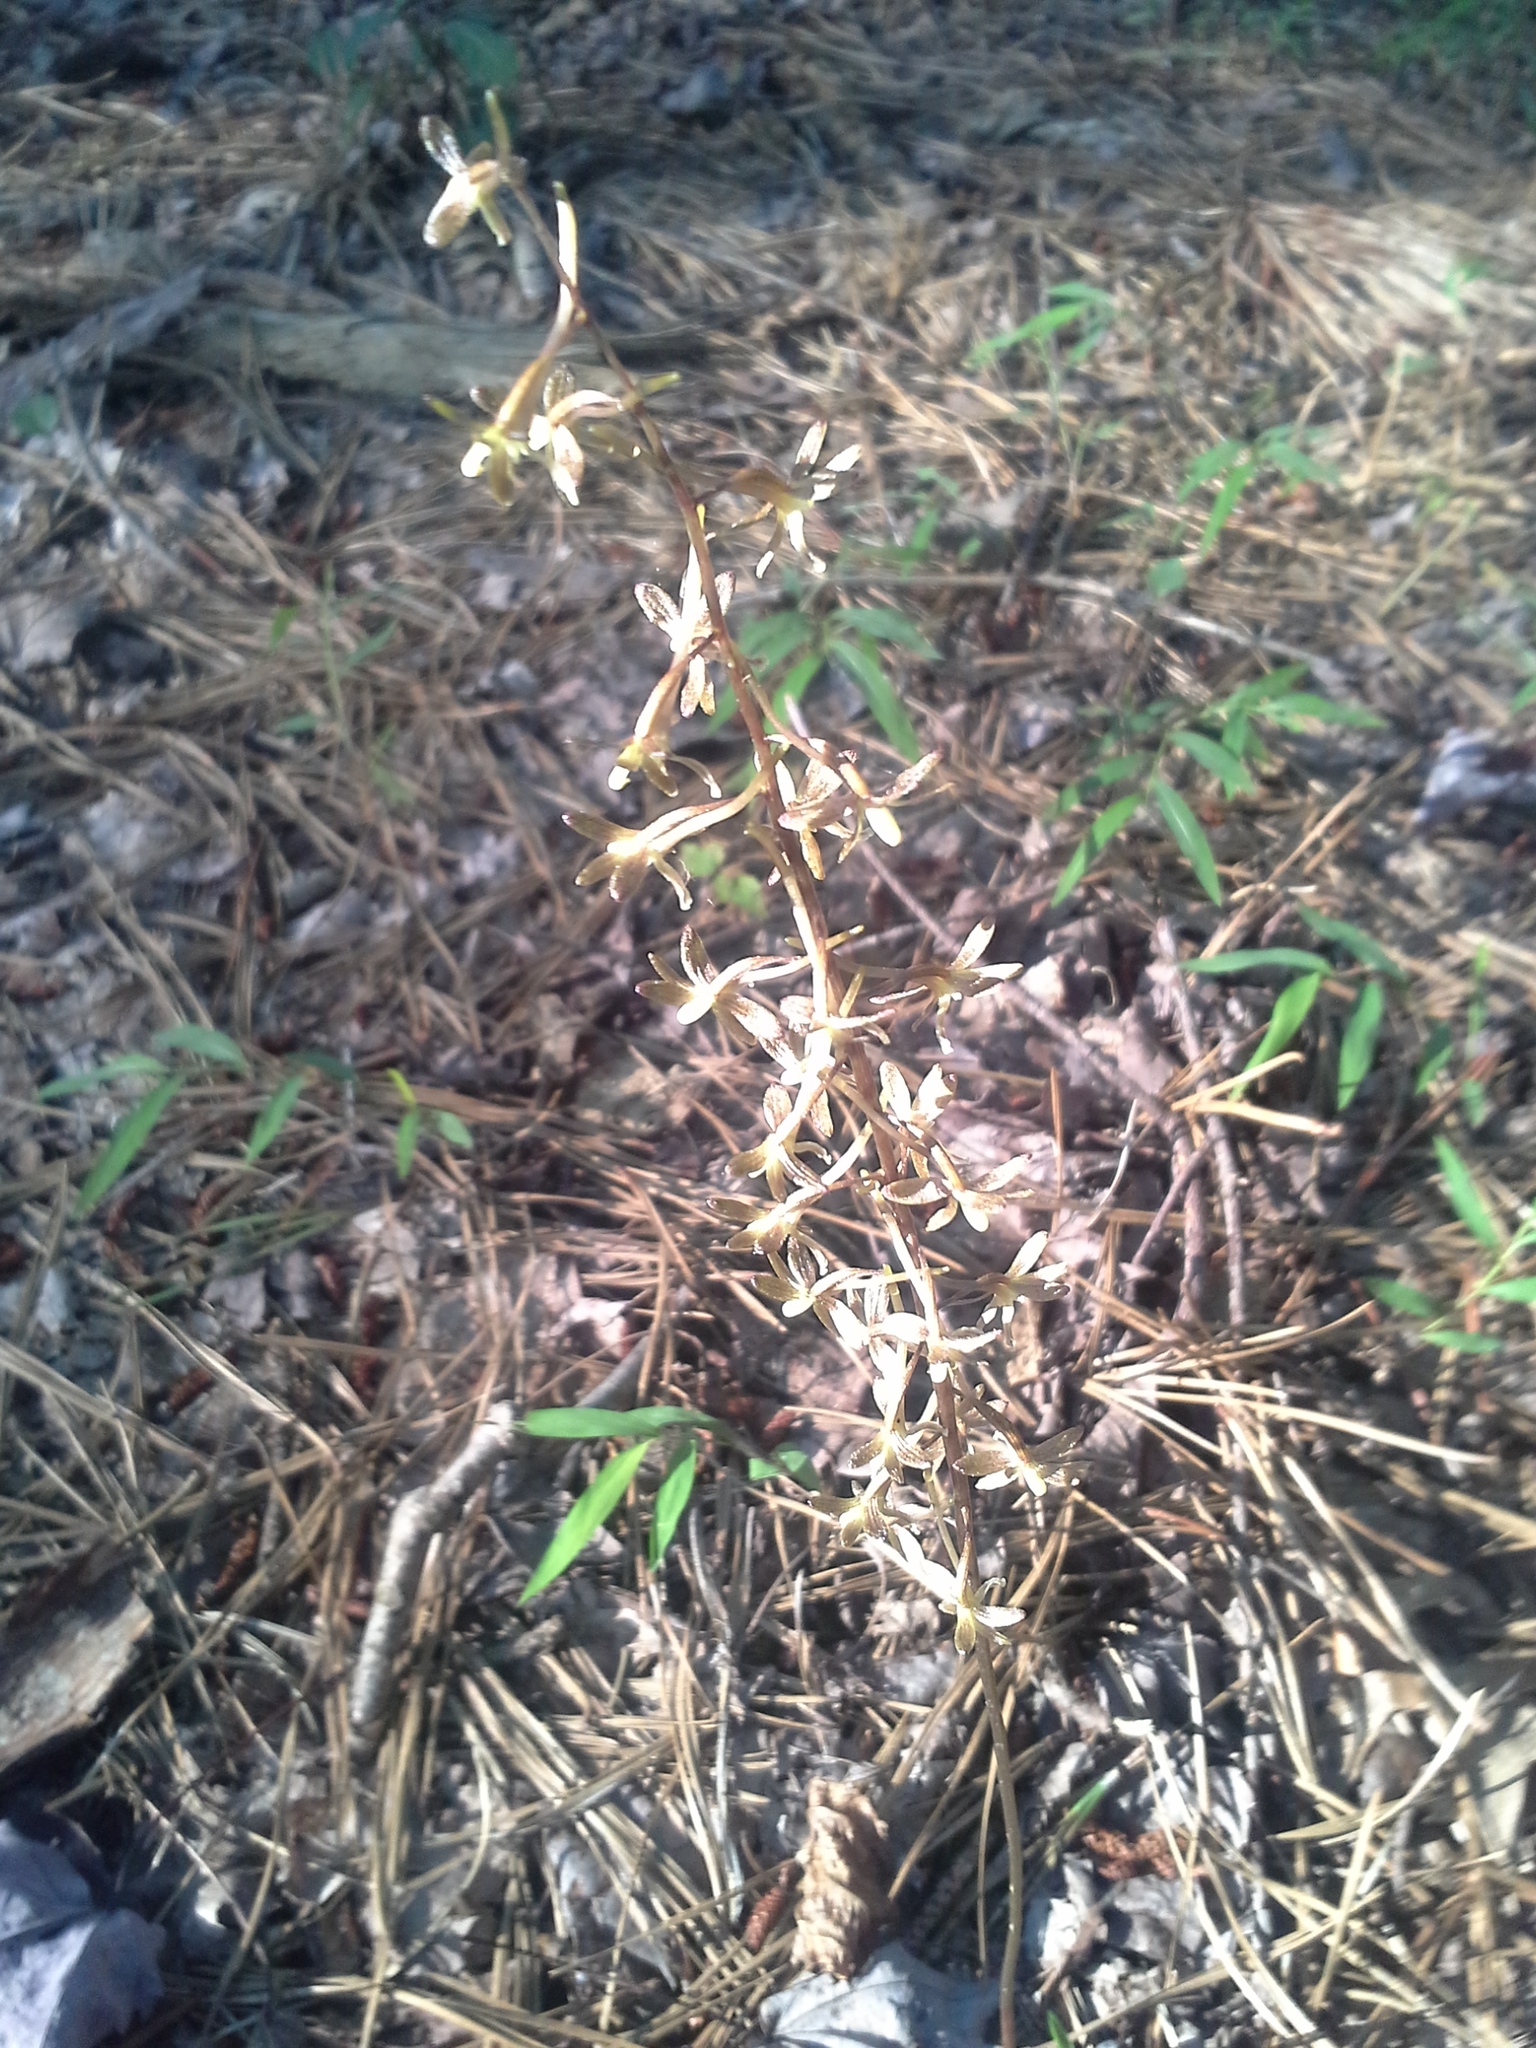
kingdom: Plantae
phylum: Tracheophyta
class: Liliopsida
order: Asparagales
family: Orchidaceae
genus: Tipularia
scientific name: Tipularia discolor
